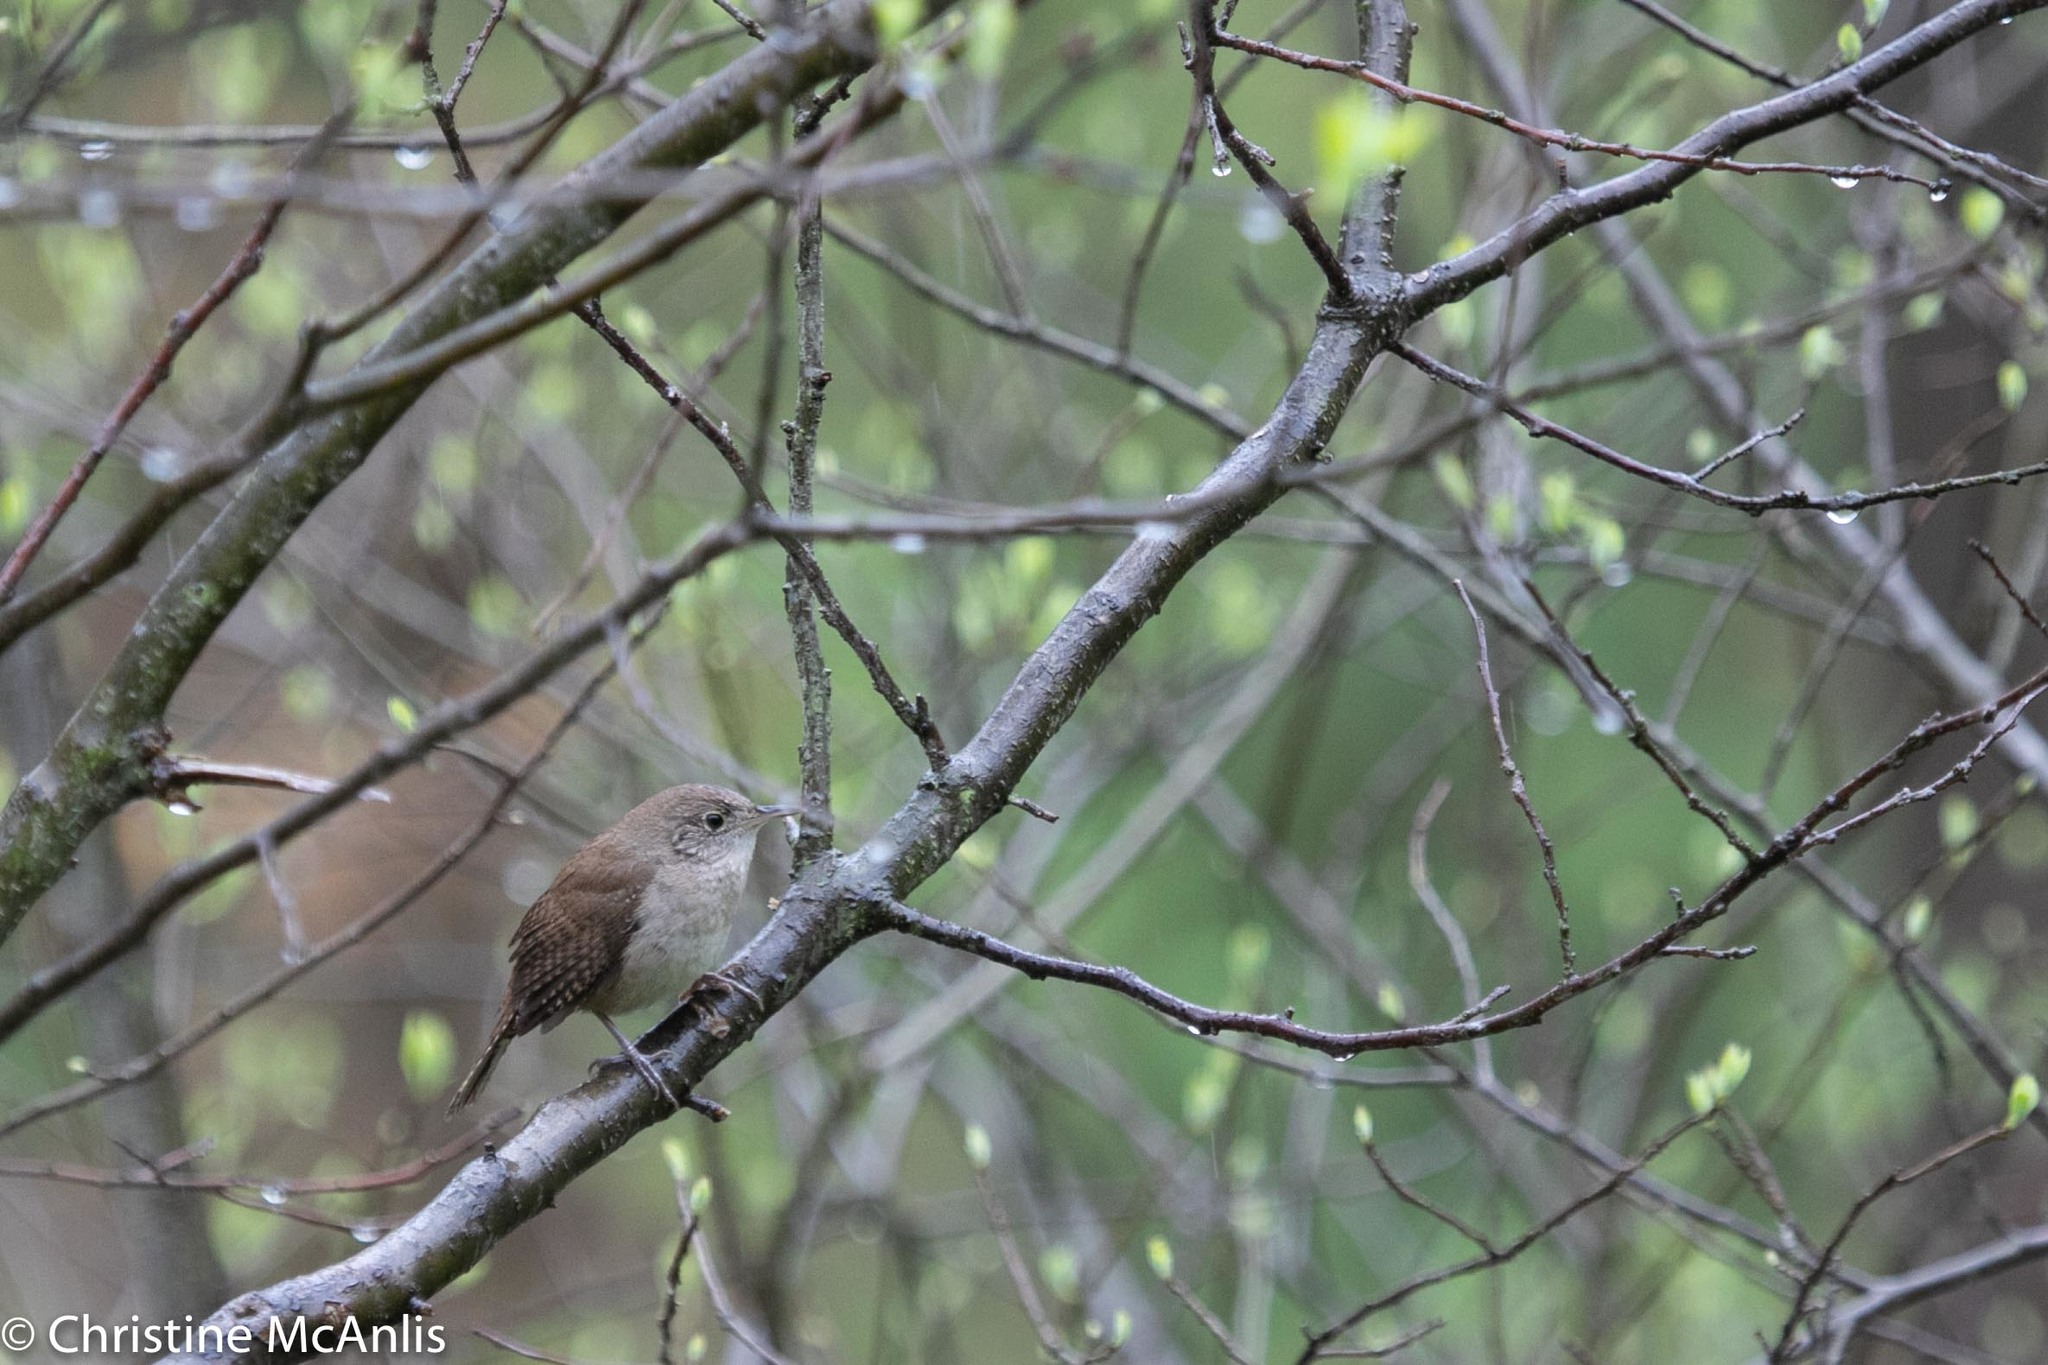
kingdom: Animalia
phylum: Chordata
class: Aves
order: Passeriformes
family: Troglodytidae
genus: Troglodytes
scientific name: Troglodytes aedon
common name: House wren
